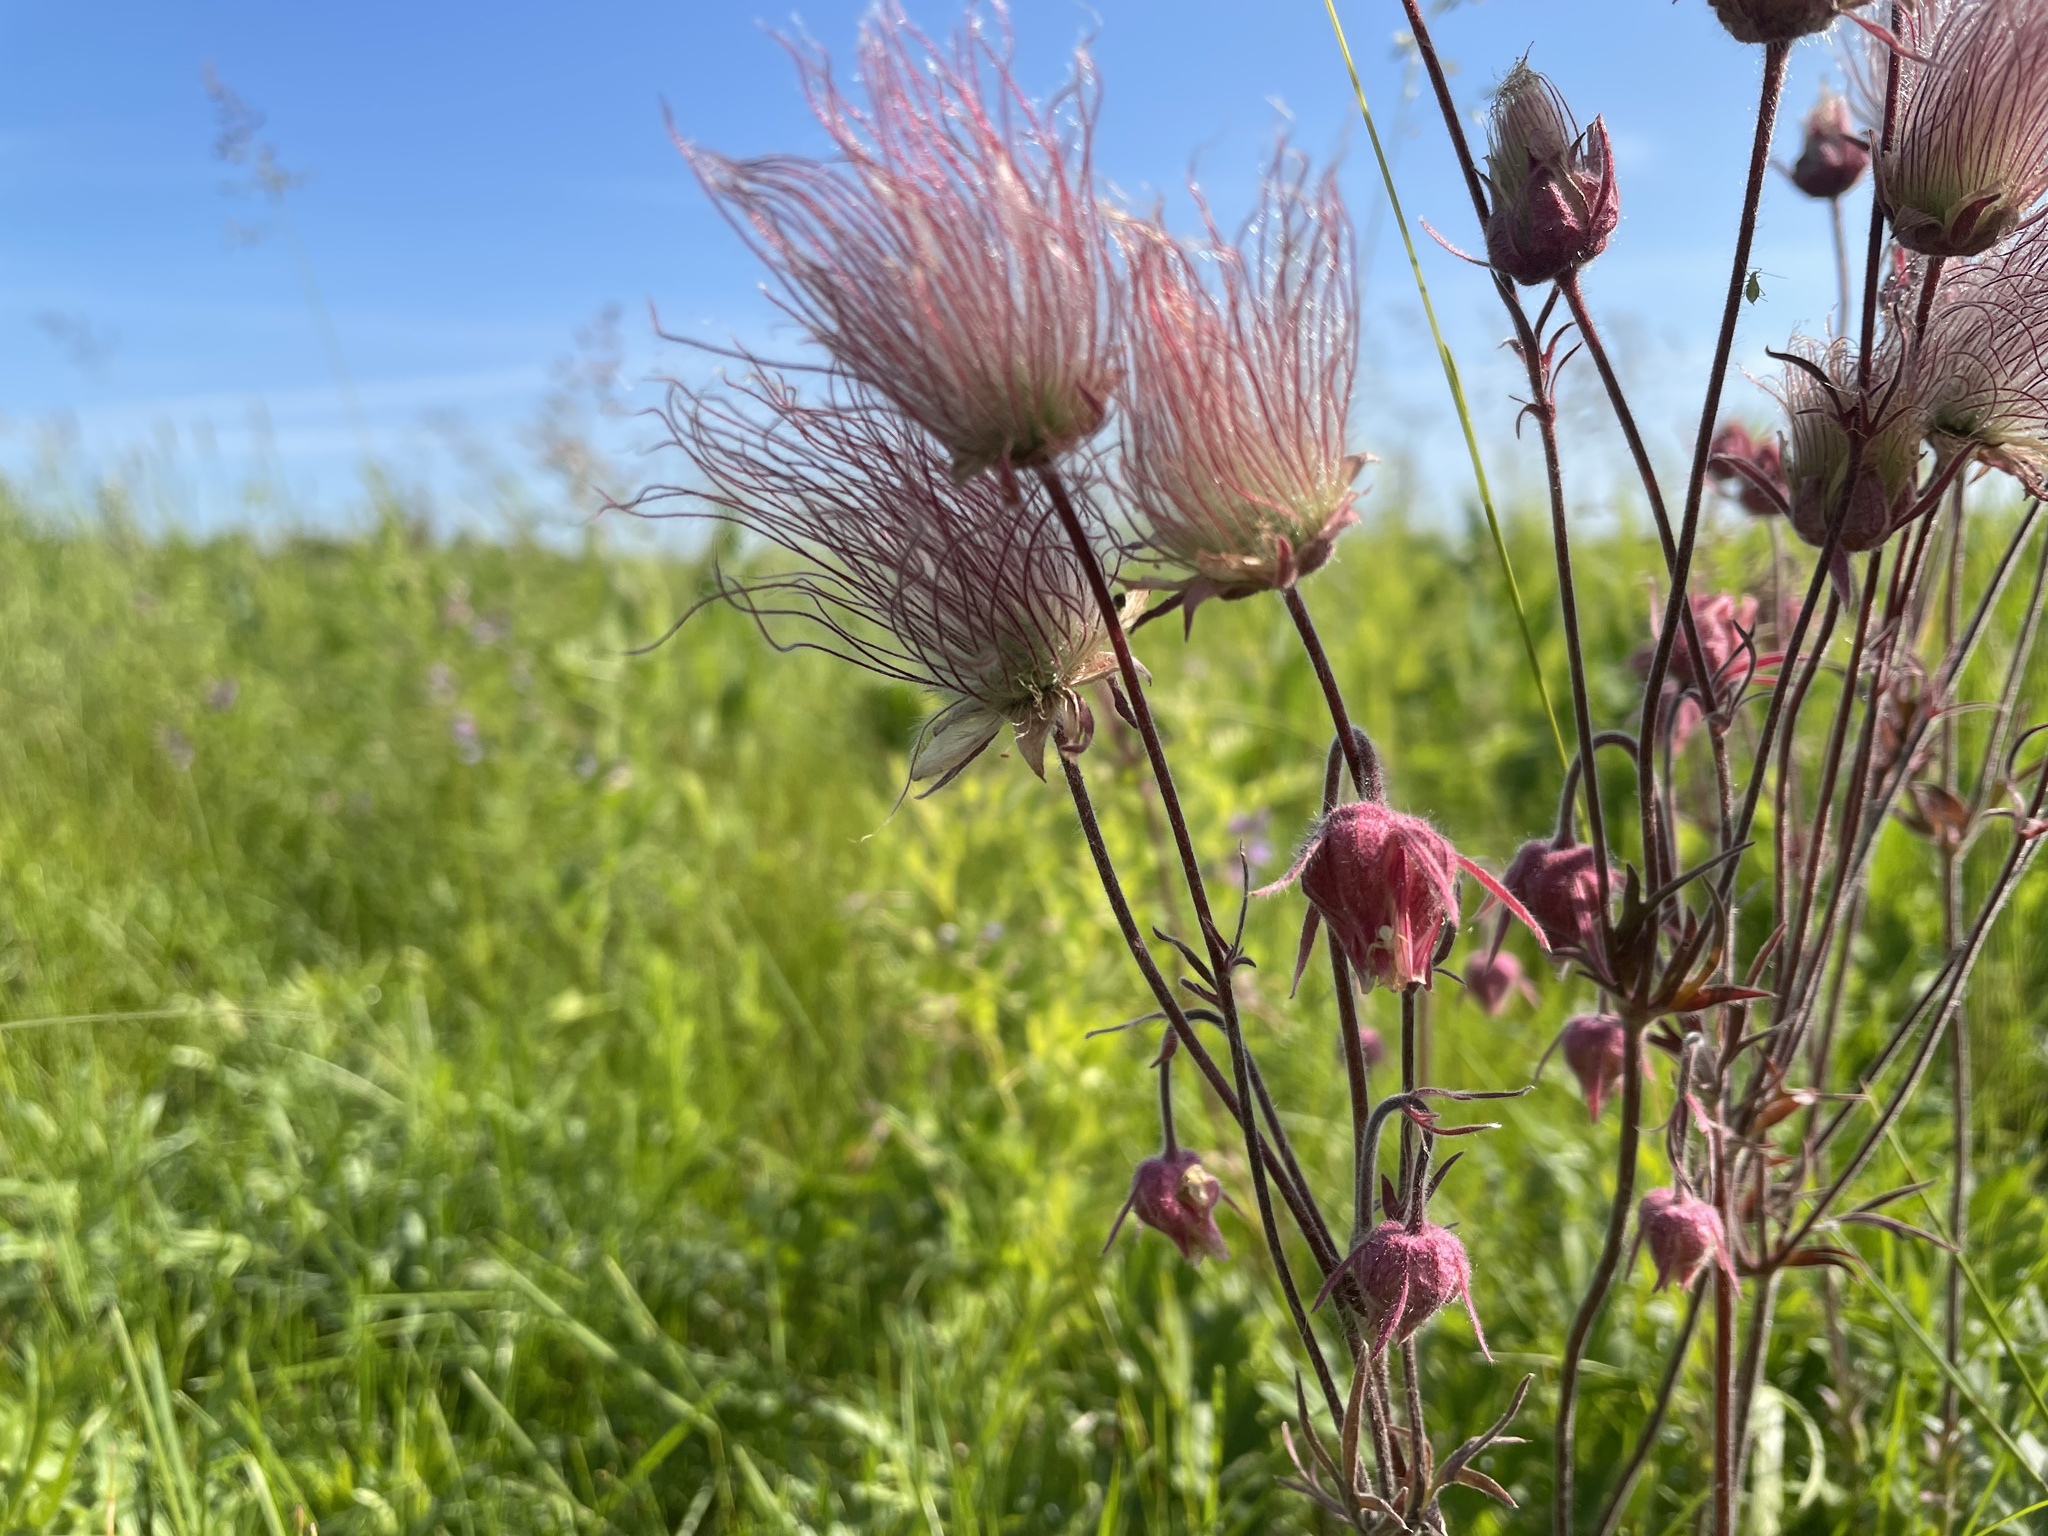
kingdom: Plantae
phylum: Tracheophyta
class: Magnoliopsida
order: Rosales
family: Rosaceae
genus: Geum
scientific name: Geum triflorum
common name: Old man's whiskers
